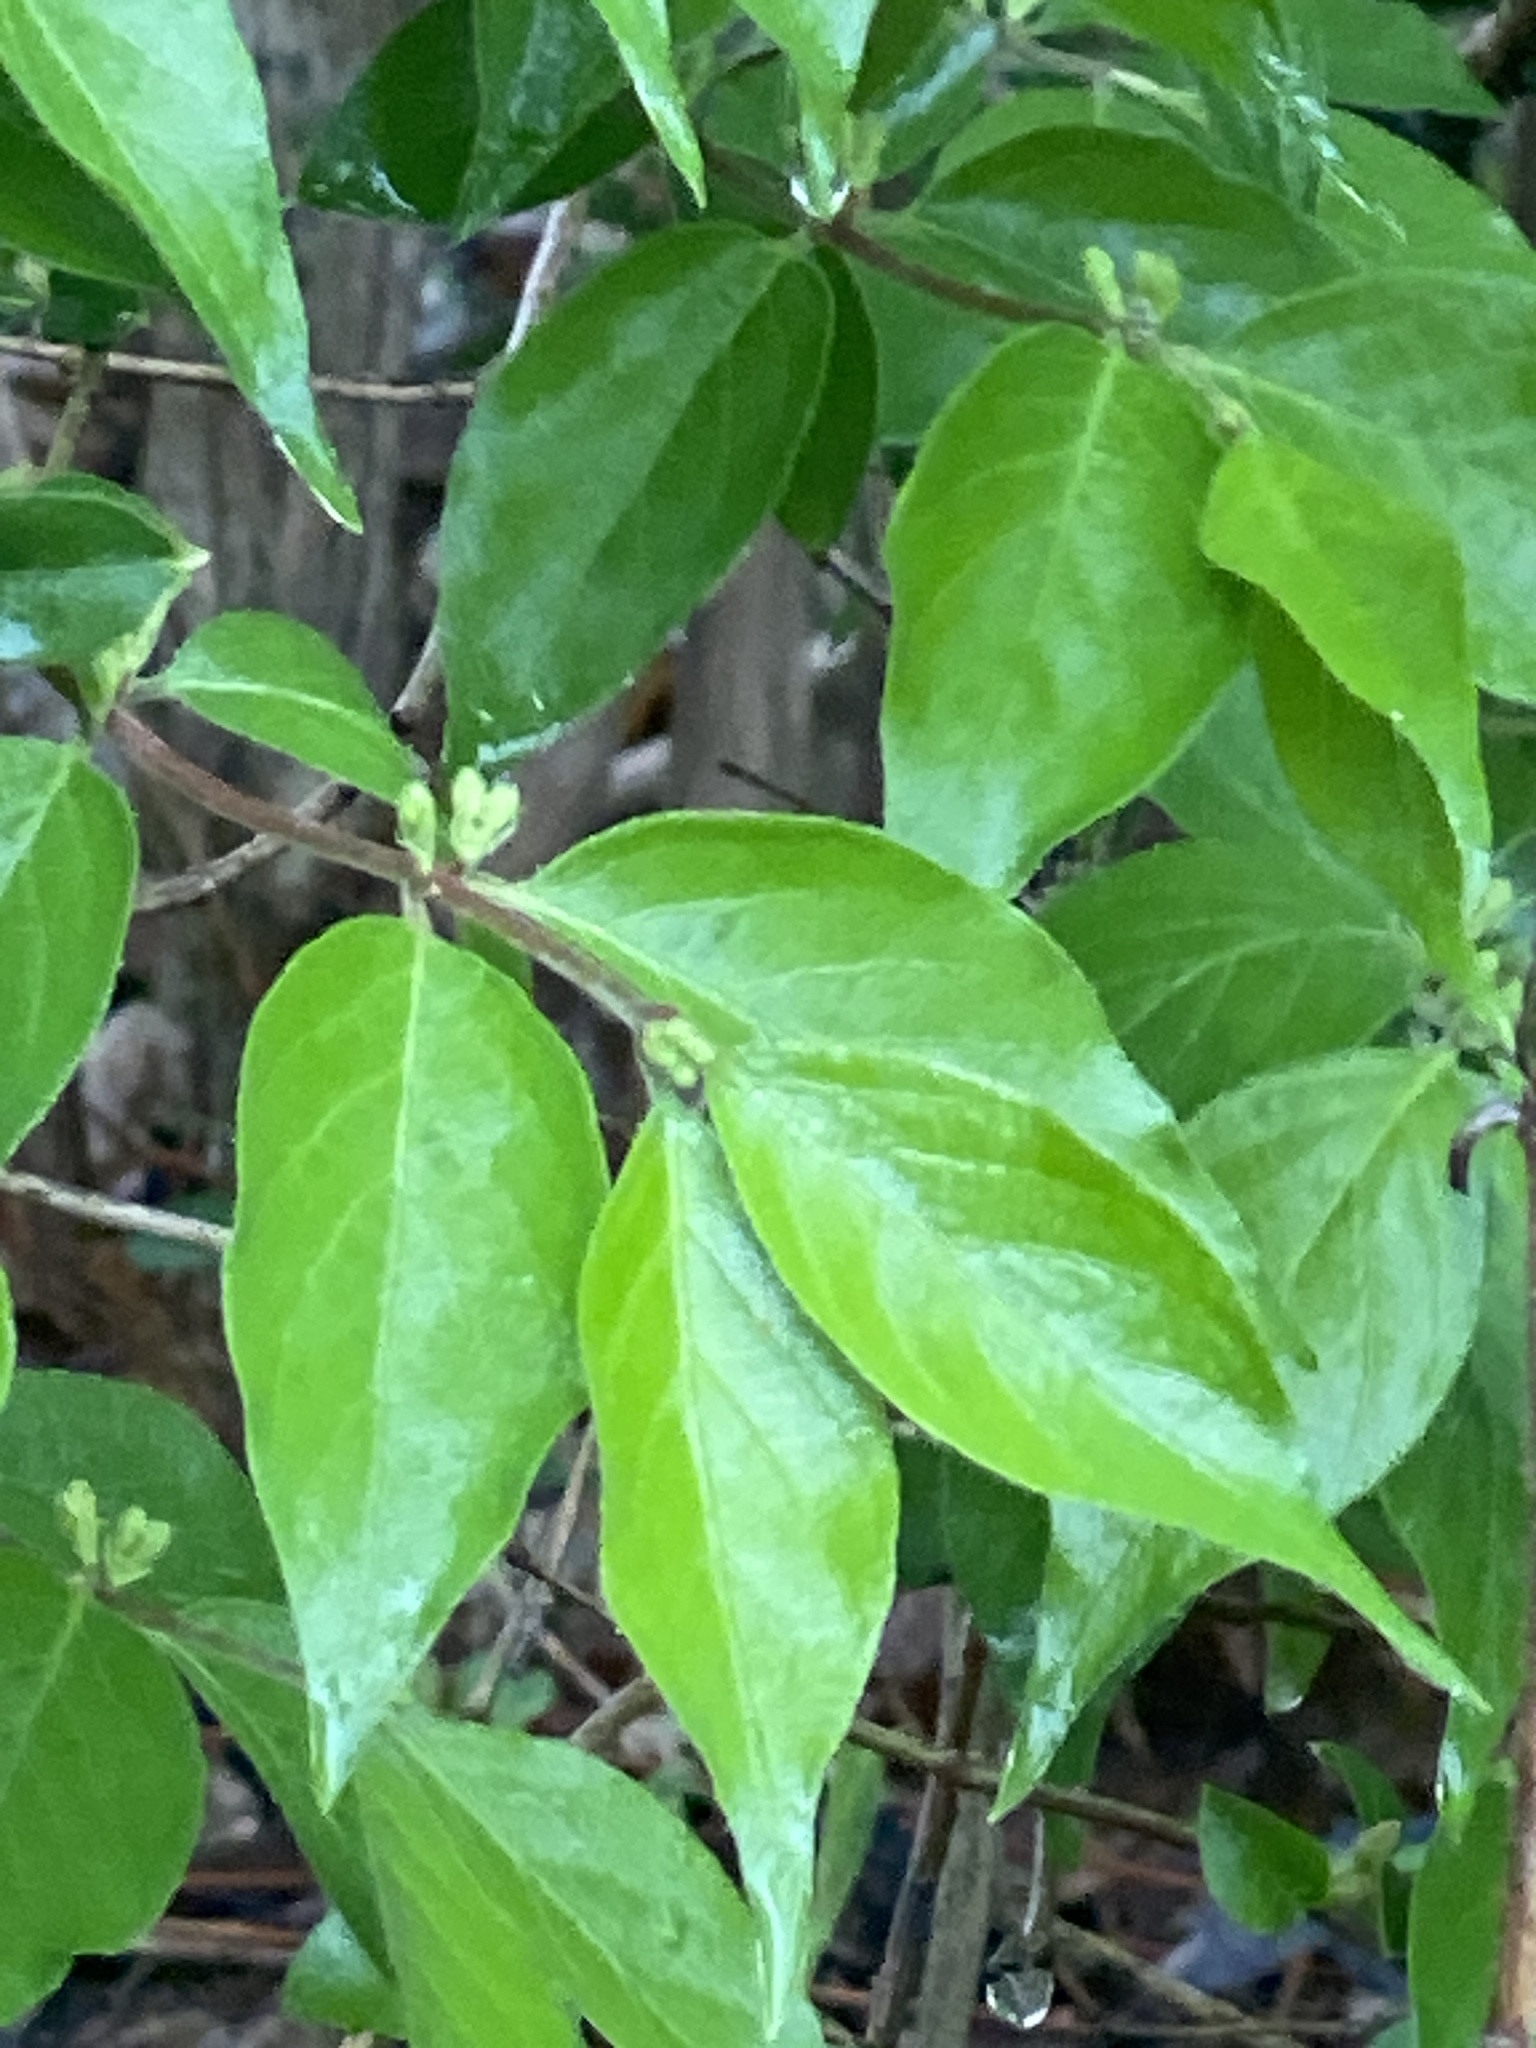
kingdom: Plantae
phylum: Tracheophyta
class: Magnoliopsida
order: Dipsacales
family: Caprifoliaceae
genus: Lonicera
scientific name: Lonicera maackii
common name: Amur honeysuckle
